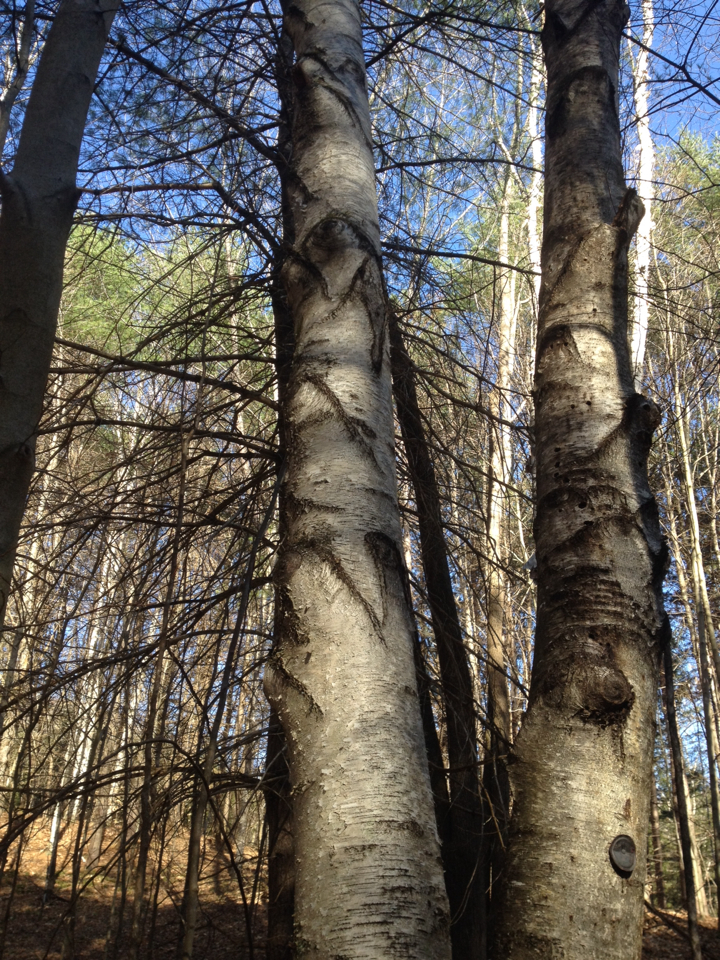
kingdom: Plantae
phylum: Tracheophyta
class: Magnoliopsida
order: Fagales
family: Betulaceae
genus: Betula
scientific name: Betula populifolia
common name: Fire birch
